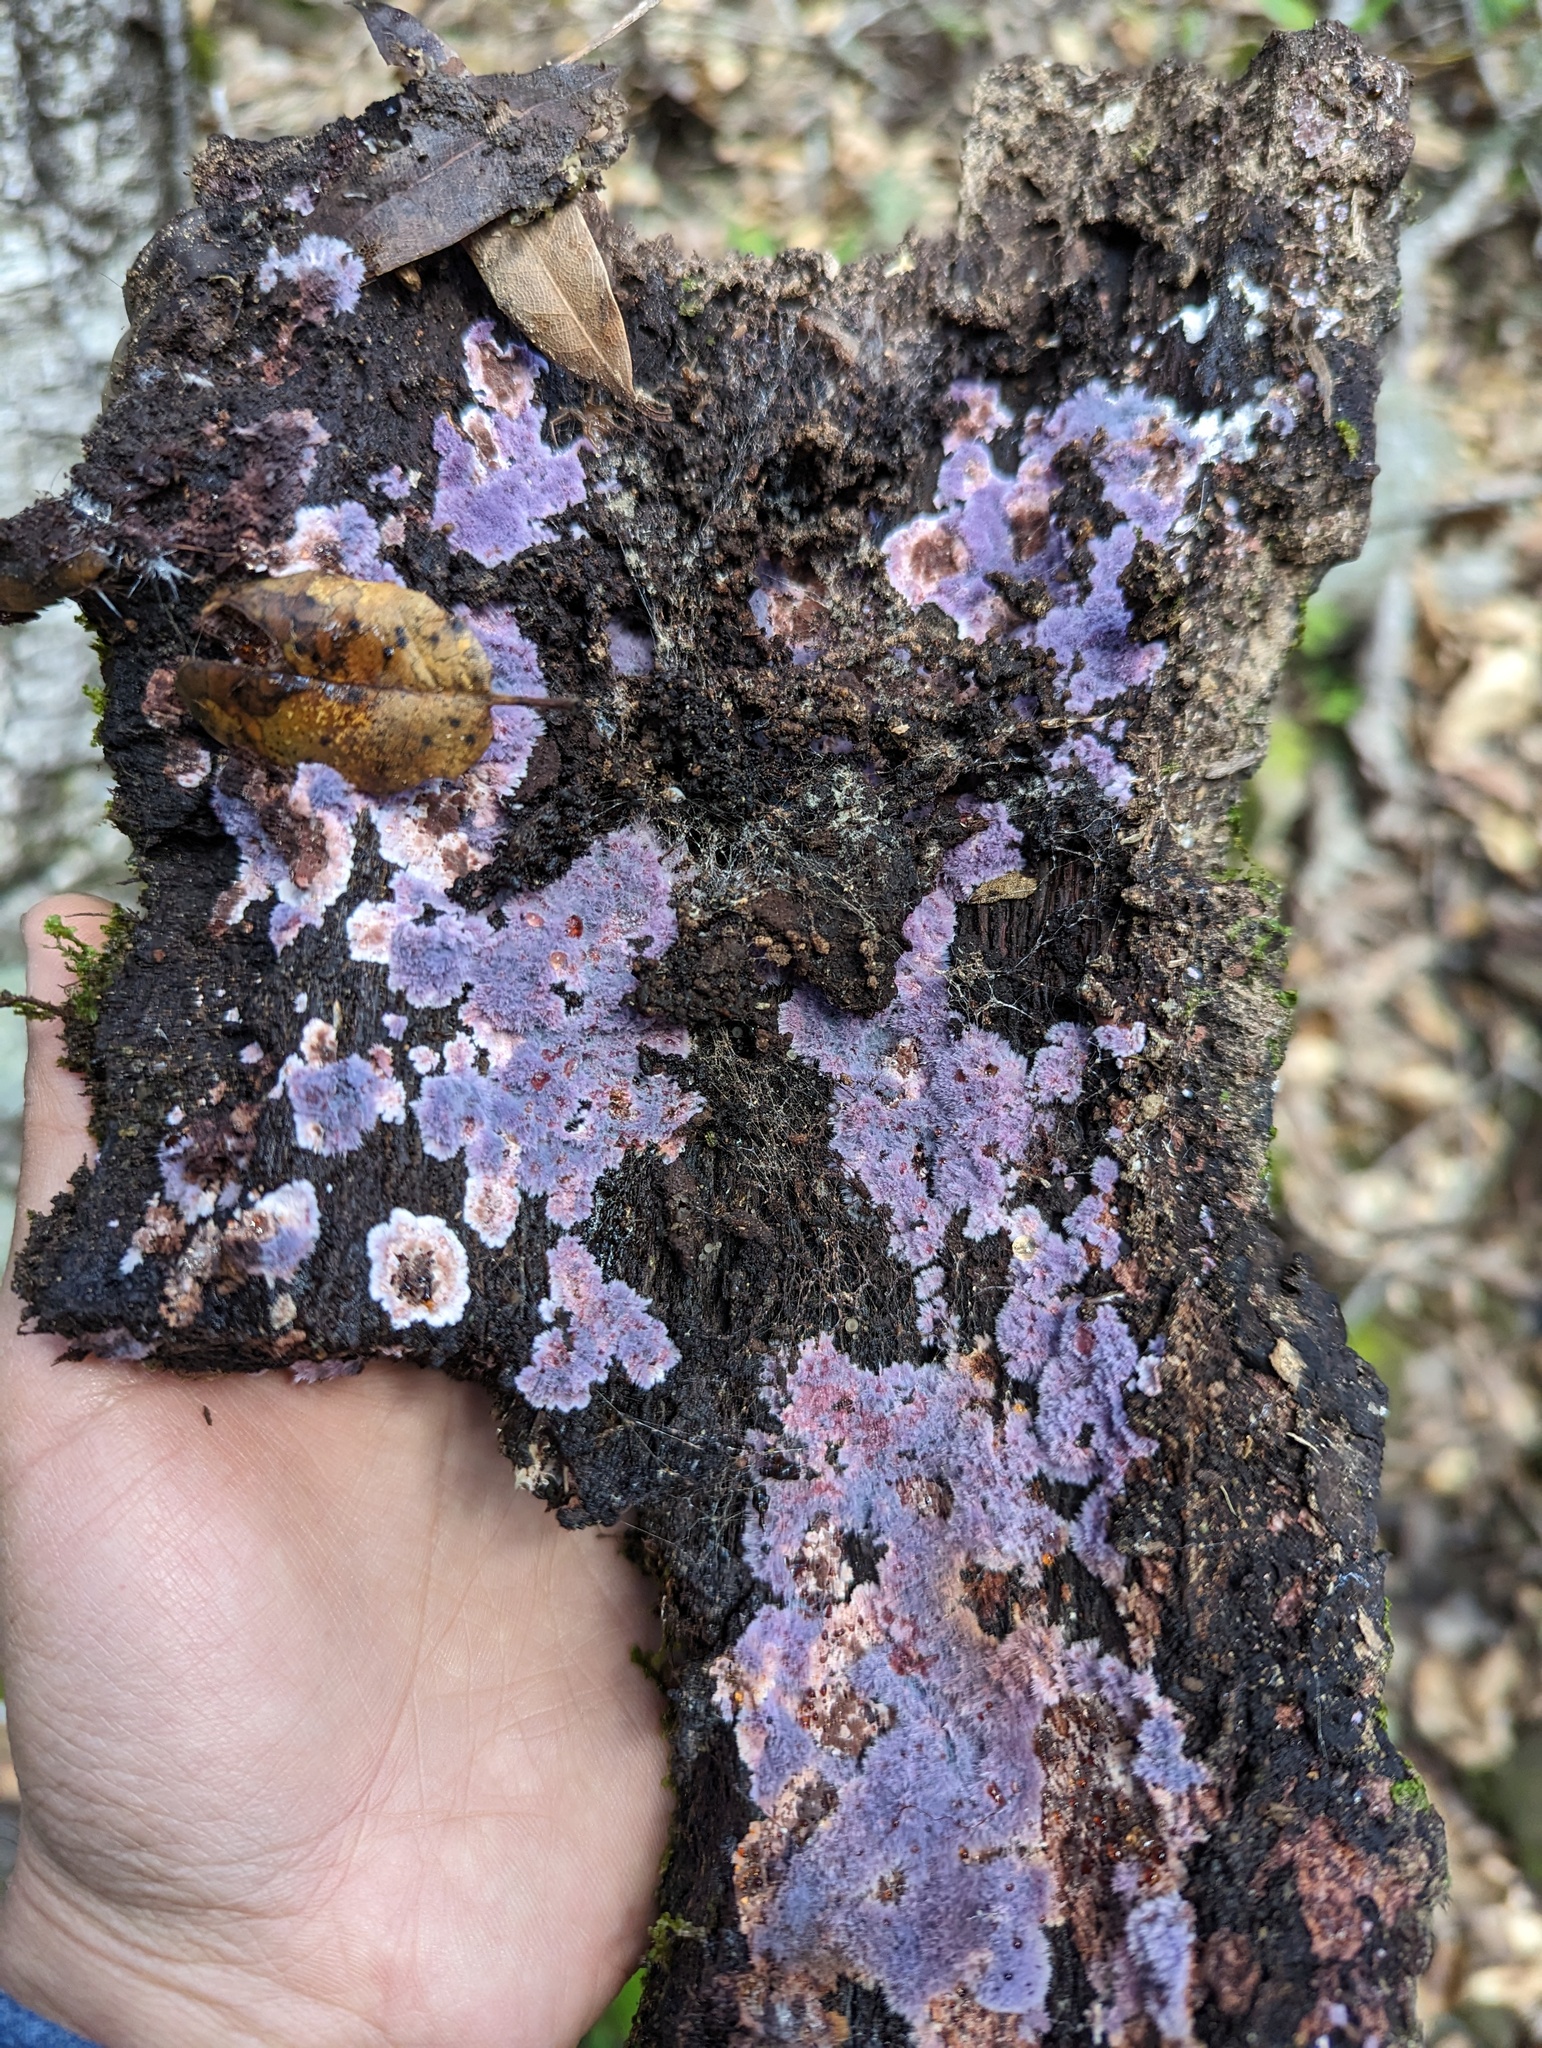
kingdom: Fungi
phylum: Basidiomycota
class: Agaricomycetes
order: Corticiales
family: Punctulariaceae
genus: Punctularia
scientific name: Punctularia atropurpurascens
